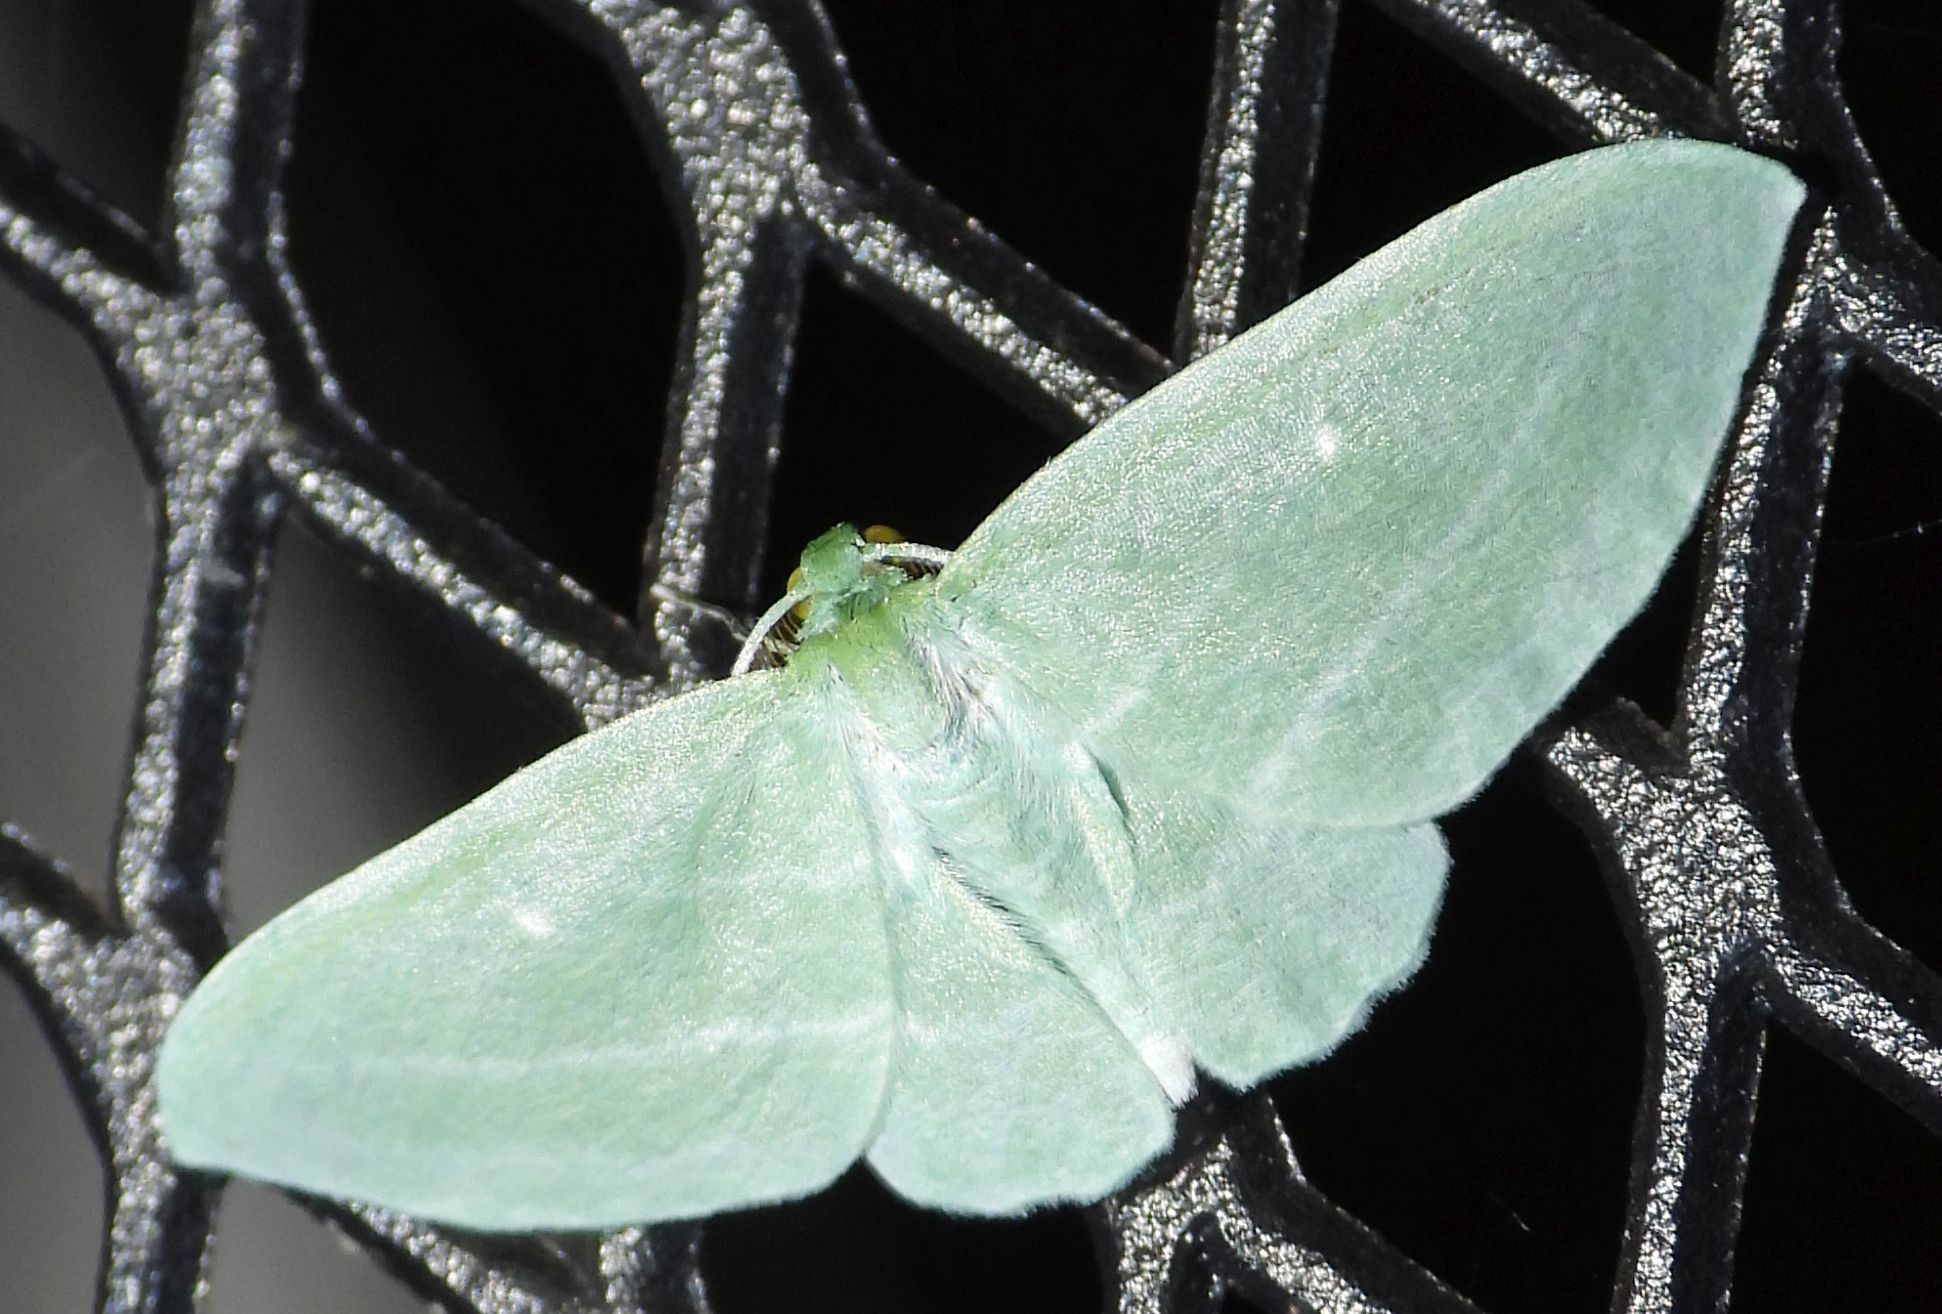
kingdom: Animalia
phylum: Arthropoda
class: Insecta
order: Lepidoptera
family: Geometridae
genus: Dyspteris
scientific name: Dyspteris abortivaria
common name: Bad-wing
